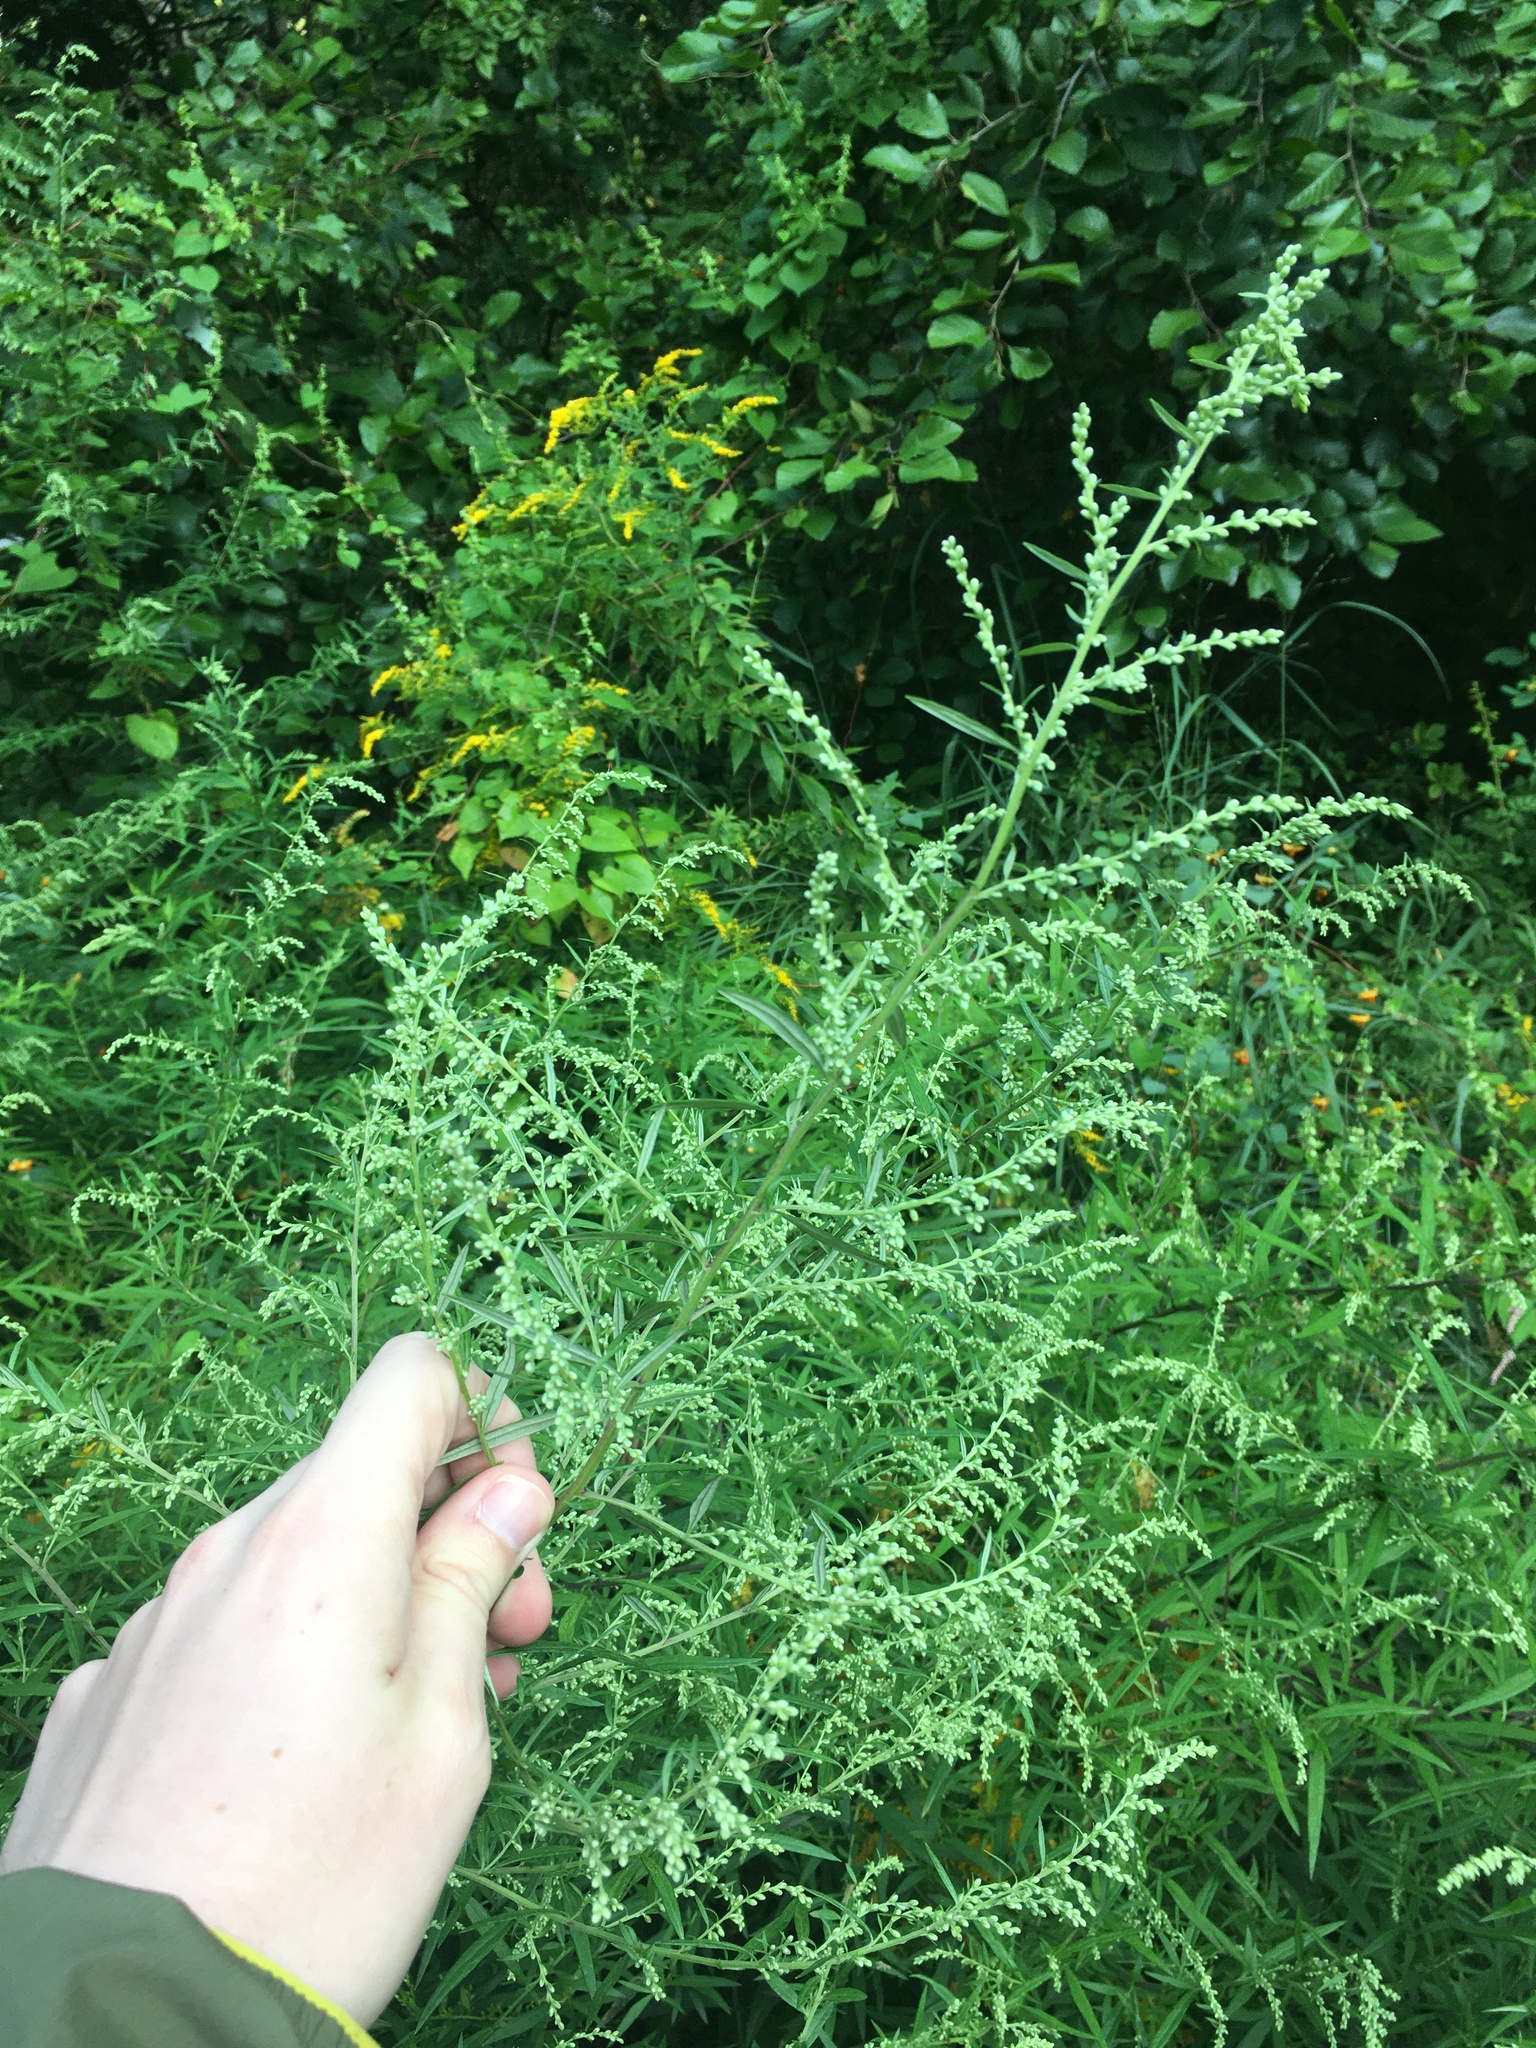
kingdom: Plantae
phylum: Tracheophyta
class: Magnoliopsida
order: Asterales
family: Asteraceae
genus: Artemisia
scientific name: Artemisia vulgaris
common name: Mugwort
